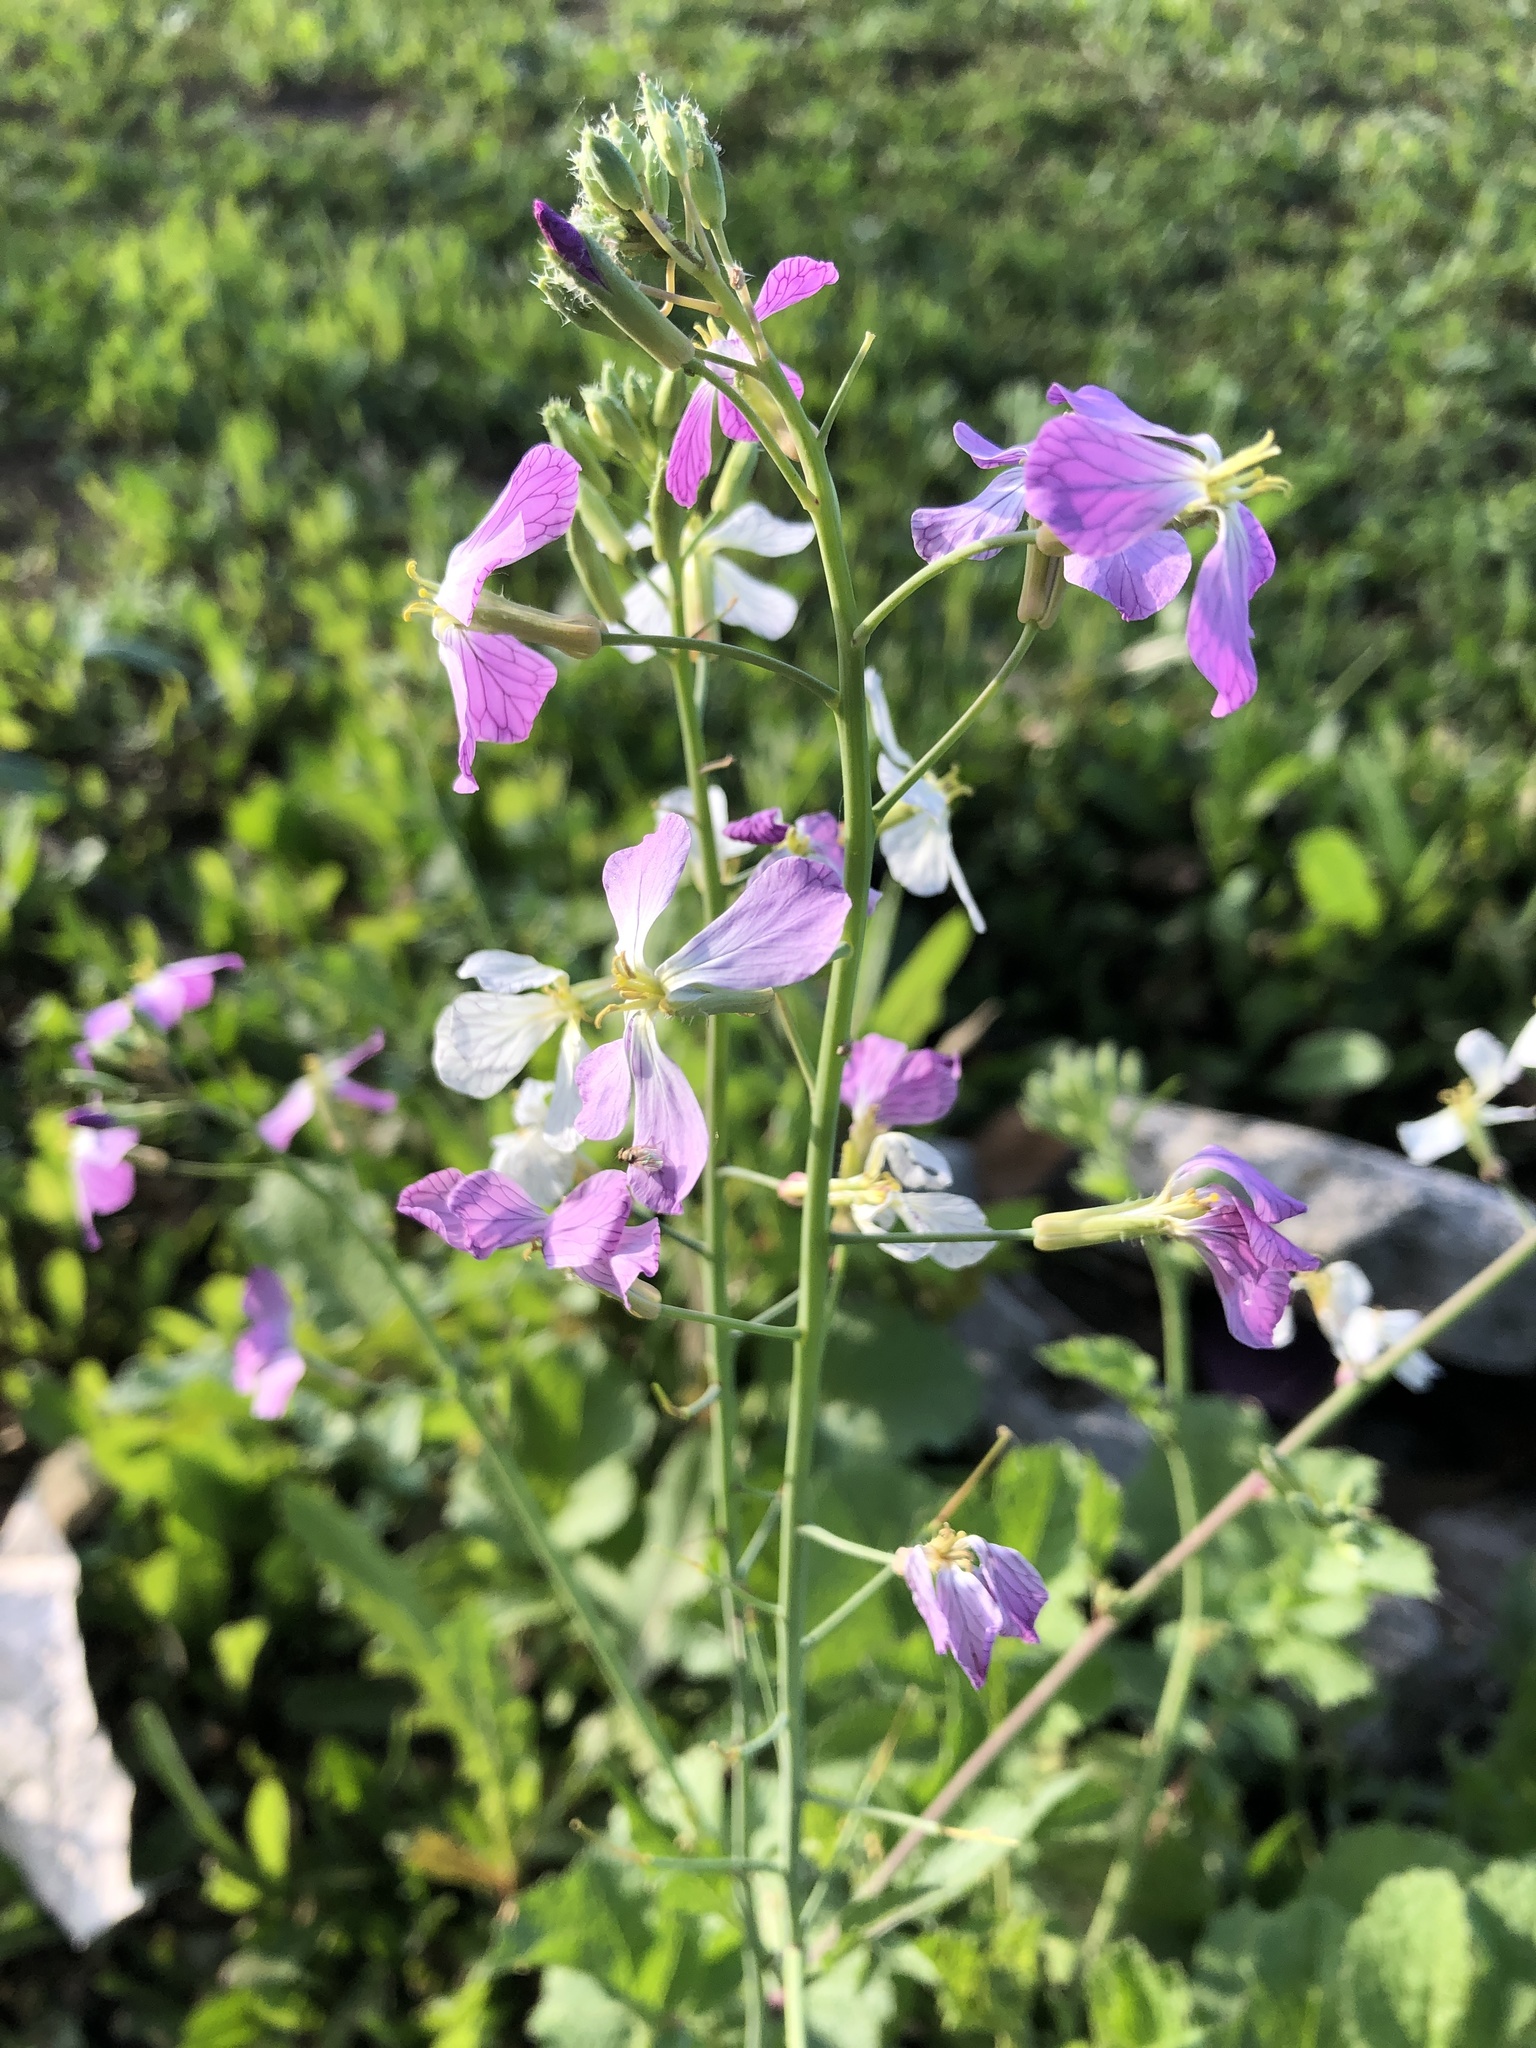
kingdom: Plantae
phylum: Tracheophyta
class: Magnoliopsida
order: Brassicales
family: Brassicaceae
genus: Raphanus
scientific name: Raphanus sativus
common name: Cultivated radish
